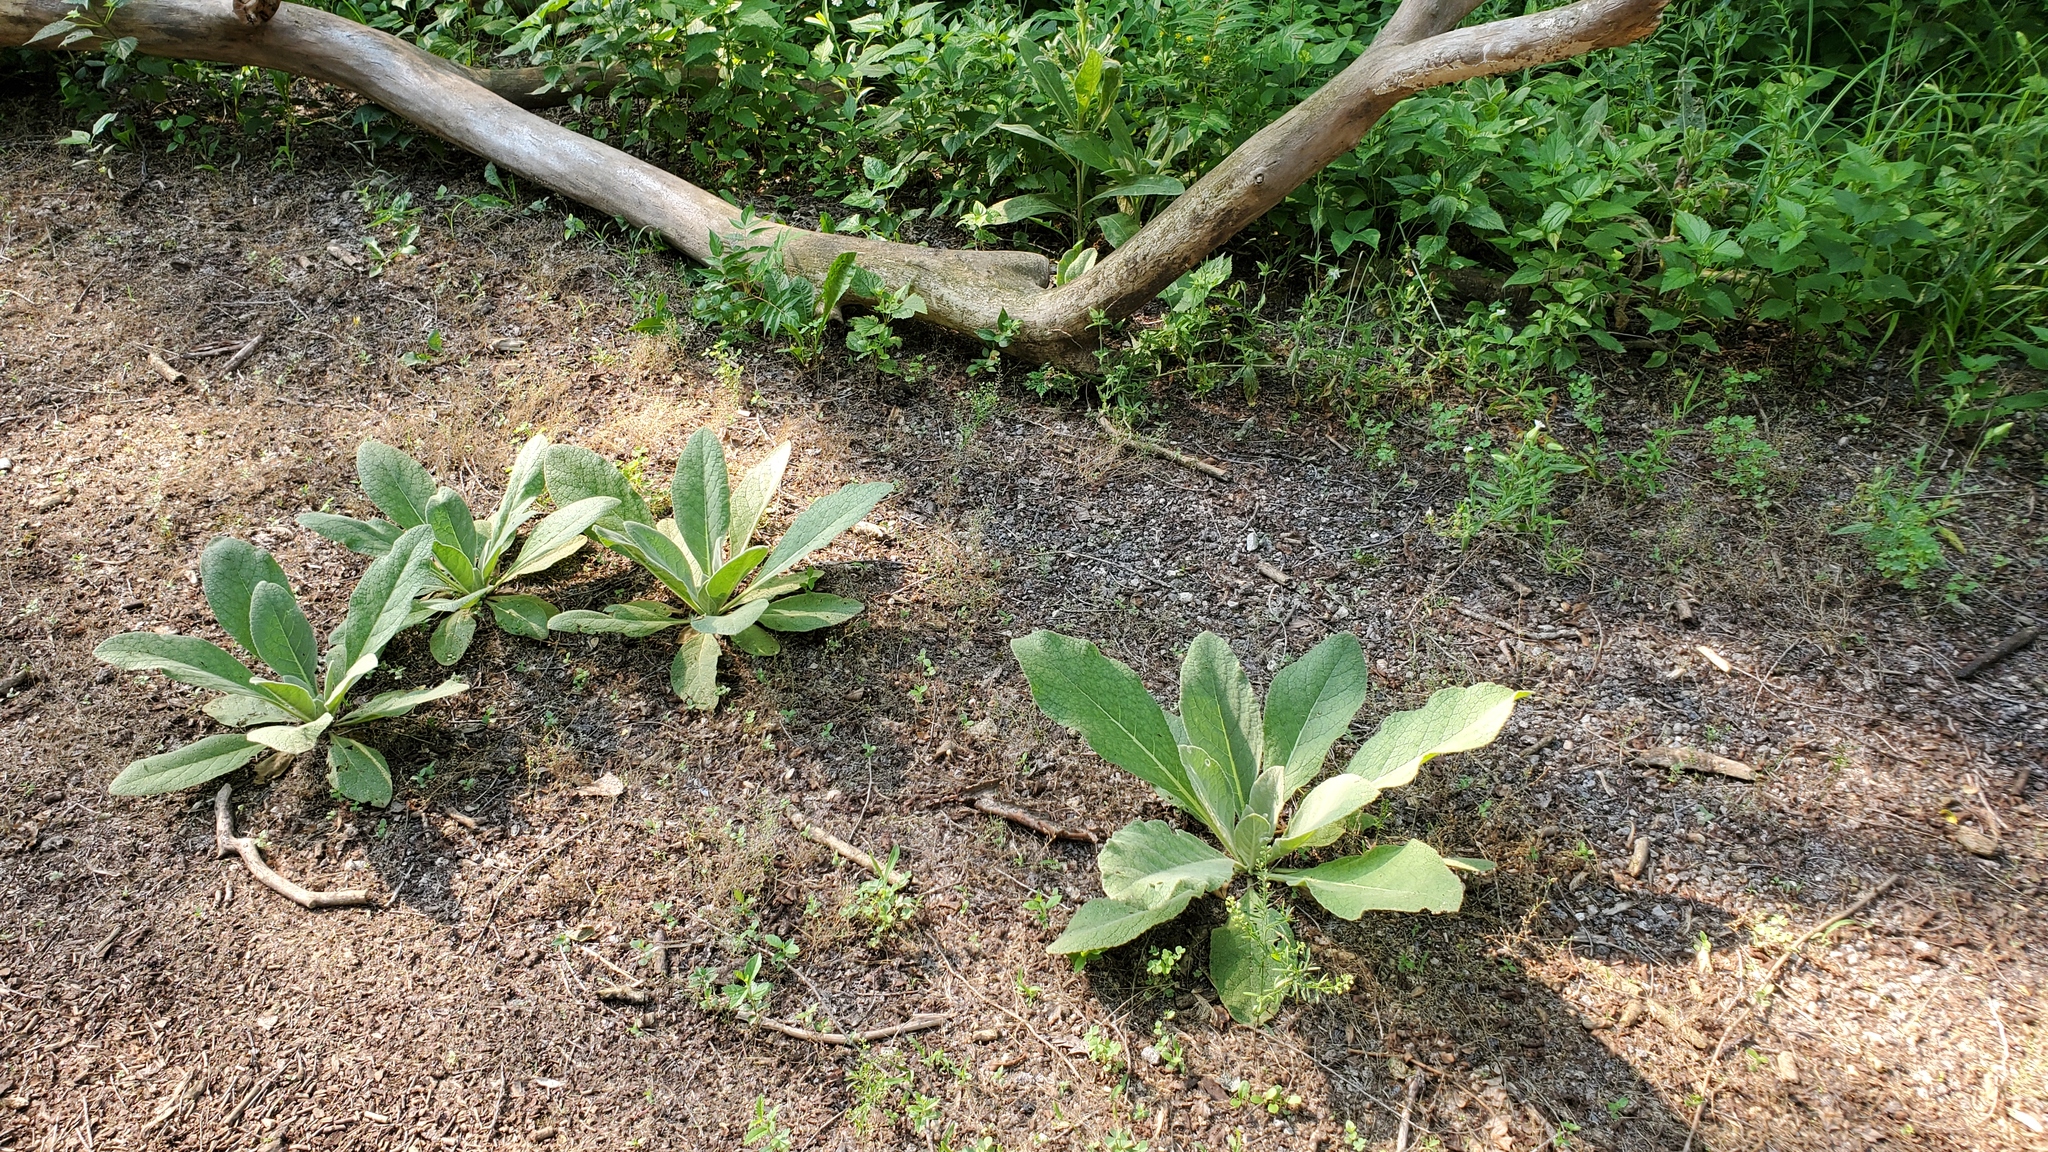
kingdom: Plantae
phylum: Tracheophyta
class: Magnoliopsida
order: Lamiales
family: Scrophulariaceae
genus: Verbascum
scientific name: Verbascum thapsus
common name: Common mullein
